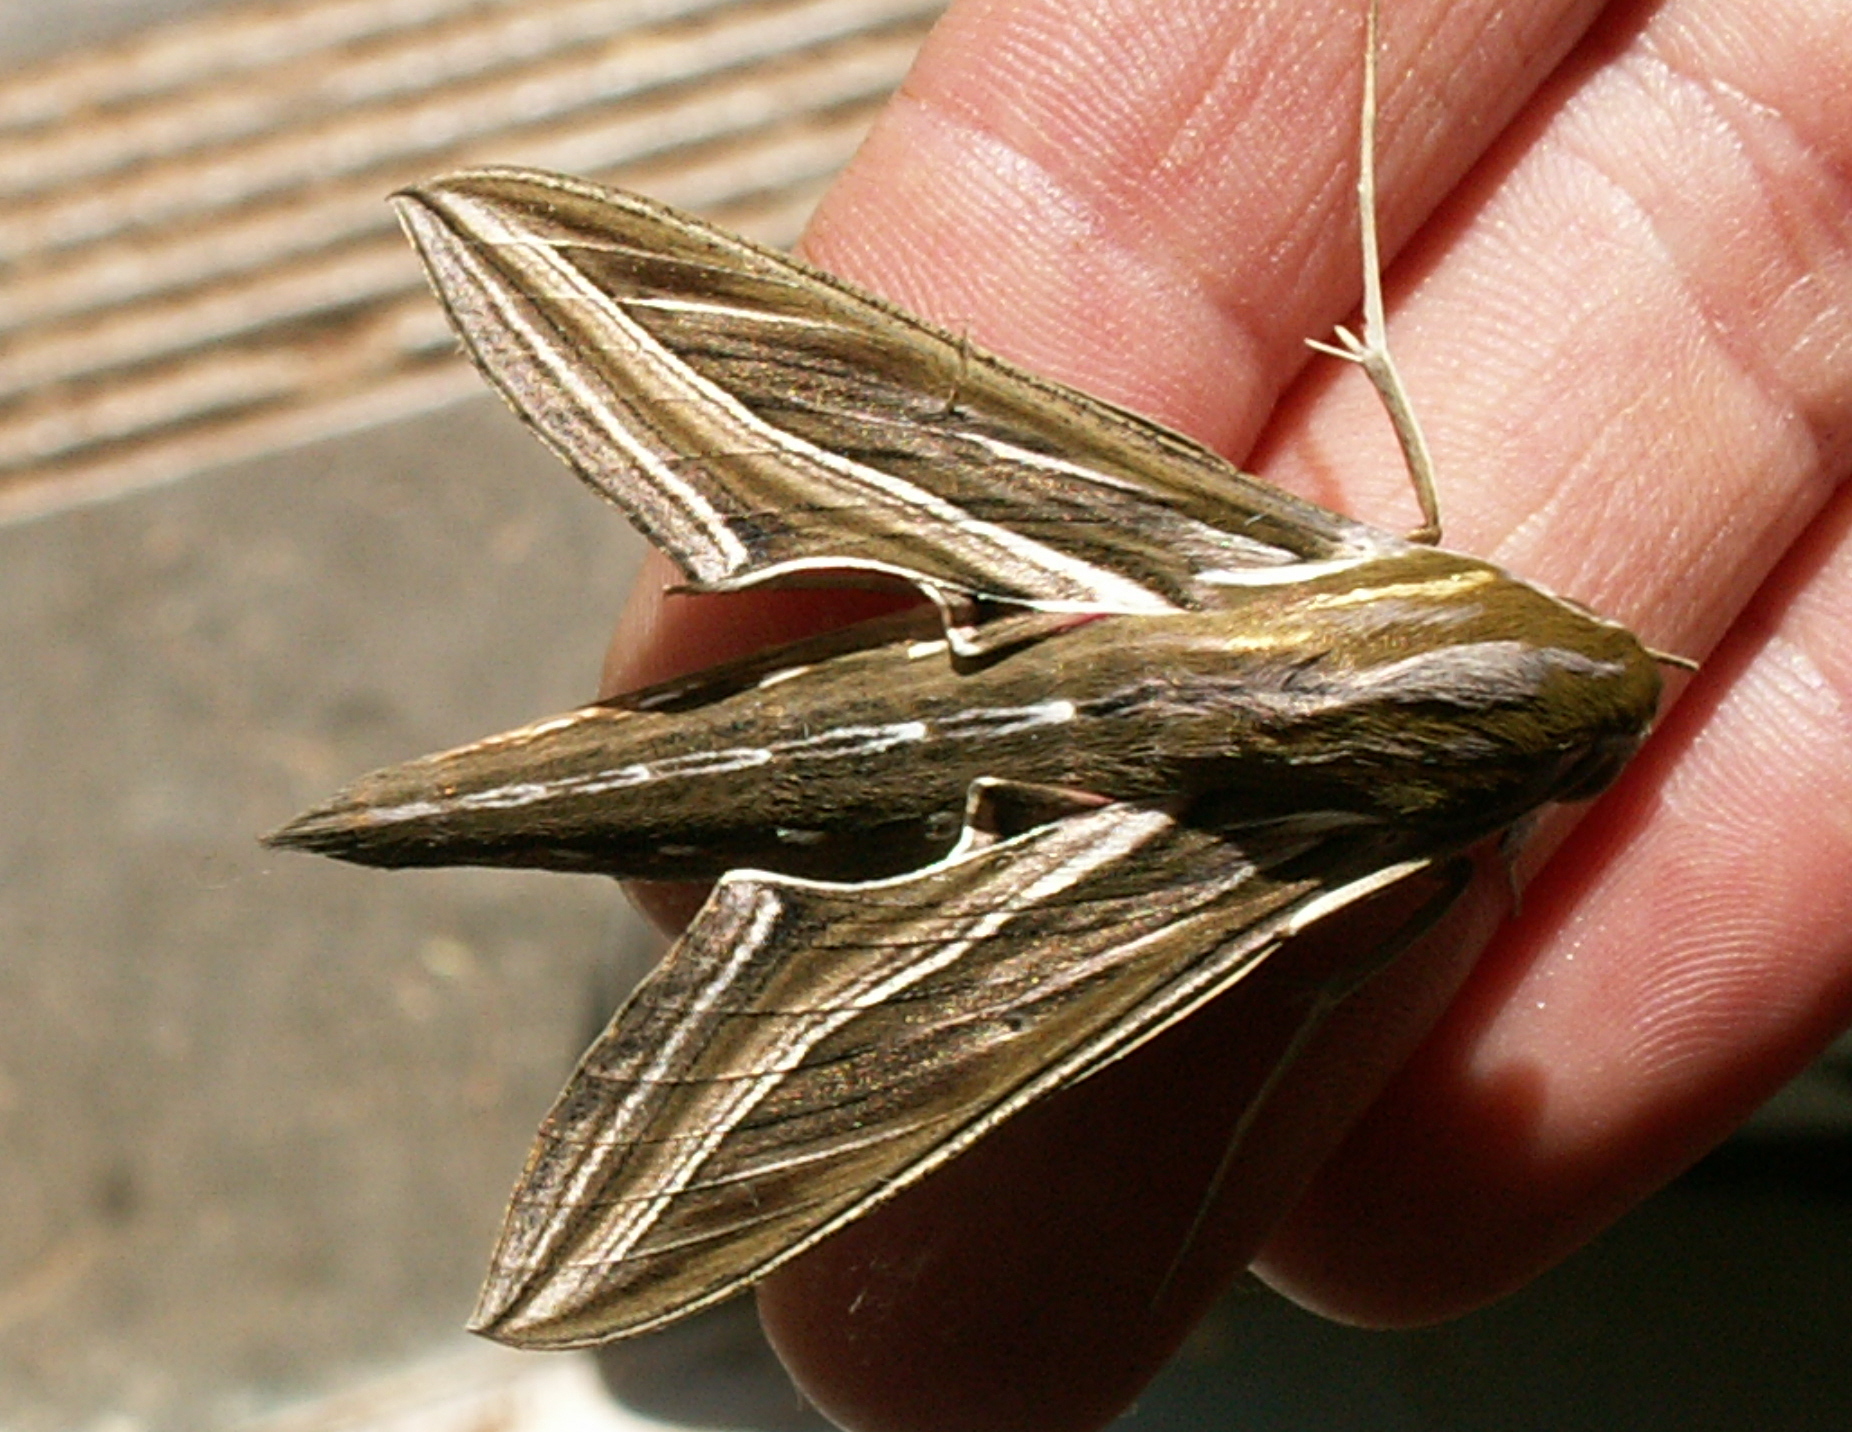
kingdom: Animalia
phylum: Arthropoda
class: Insecta
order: Lepidoptera
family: Sphingidae
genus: Hippotion
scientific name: Hippotion celerio
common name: Silver-striped hawk-moth
